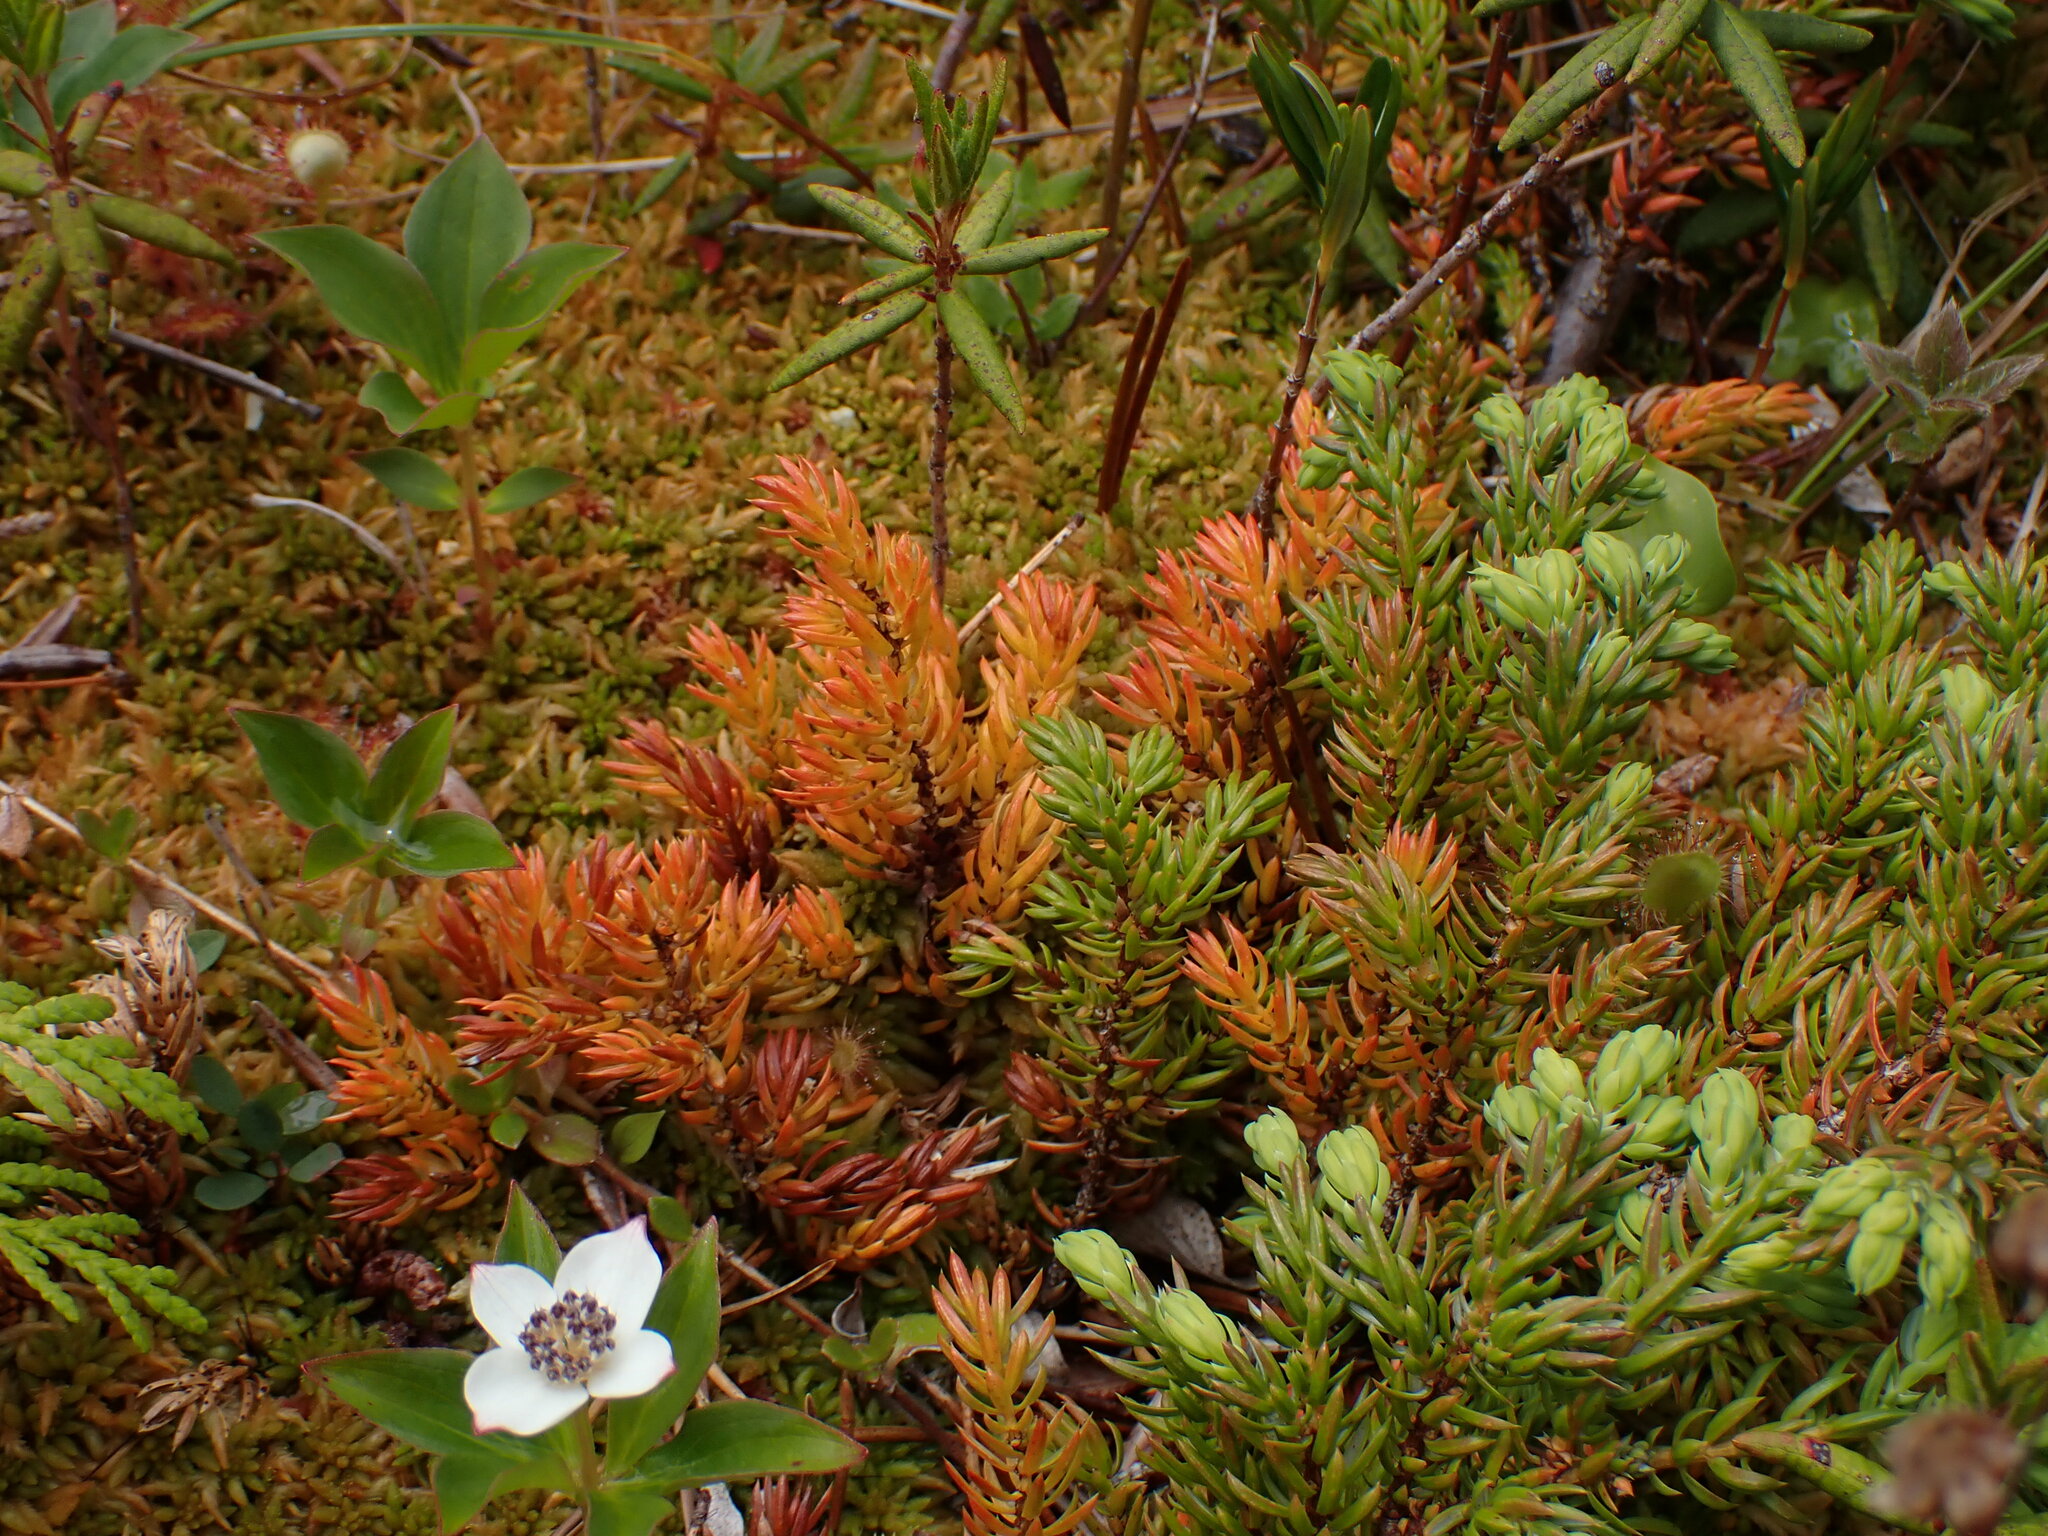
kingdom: Plantae
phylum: Tracheophyta
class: Pinopsida
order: Pinales
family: Cupressaceae
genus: Juniperus
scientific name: Juniperus communis
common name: Common juniper
